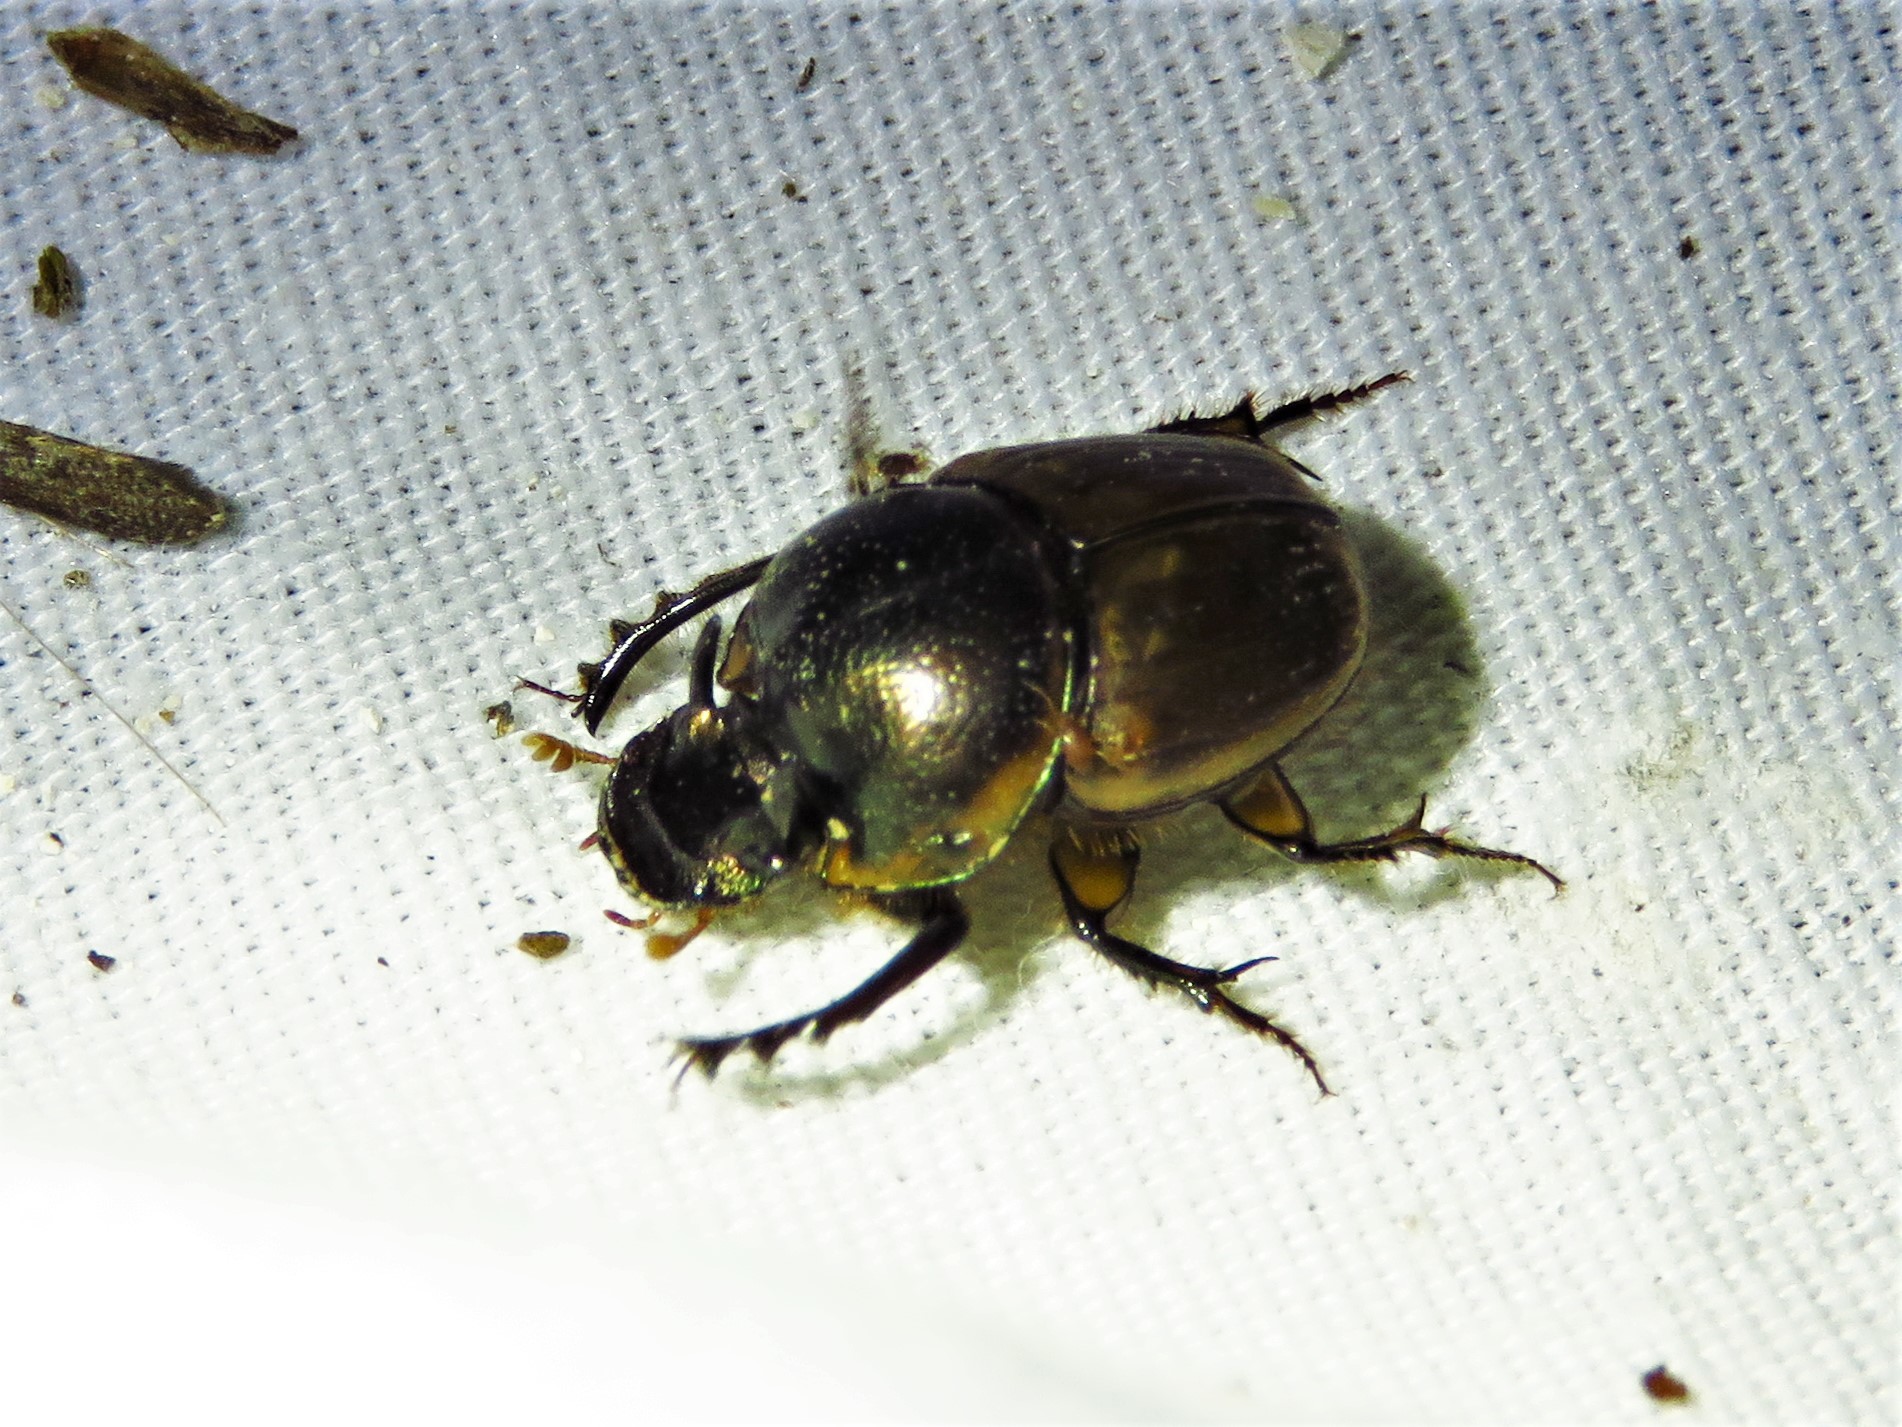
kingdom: Animalia
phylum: Arthropoda
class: Insecta
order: Coleoptera
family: Scarabaeidae
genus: Digitonthophagus
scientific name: Digitonthophagus gazella
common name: Brown dung beetle
